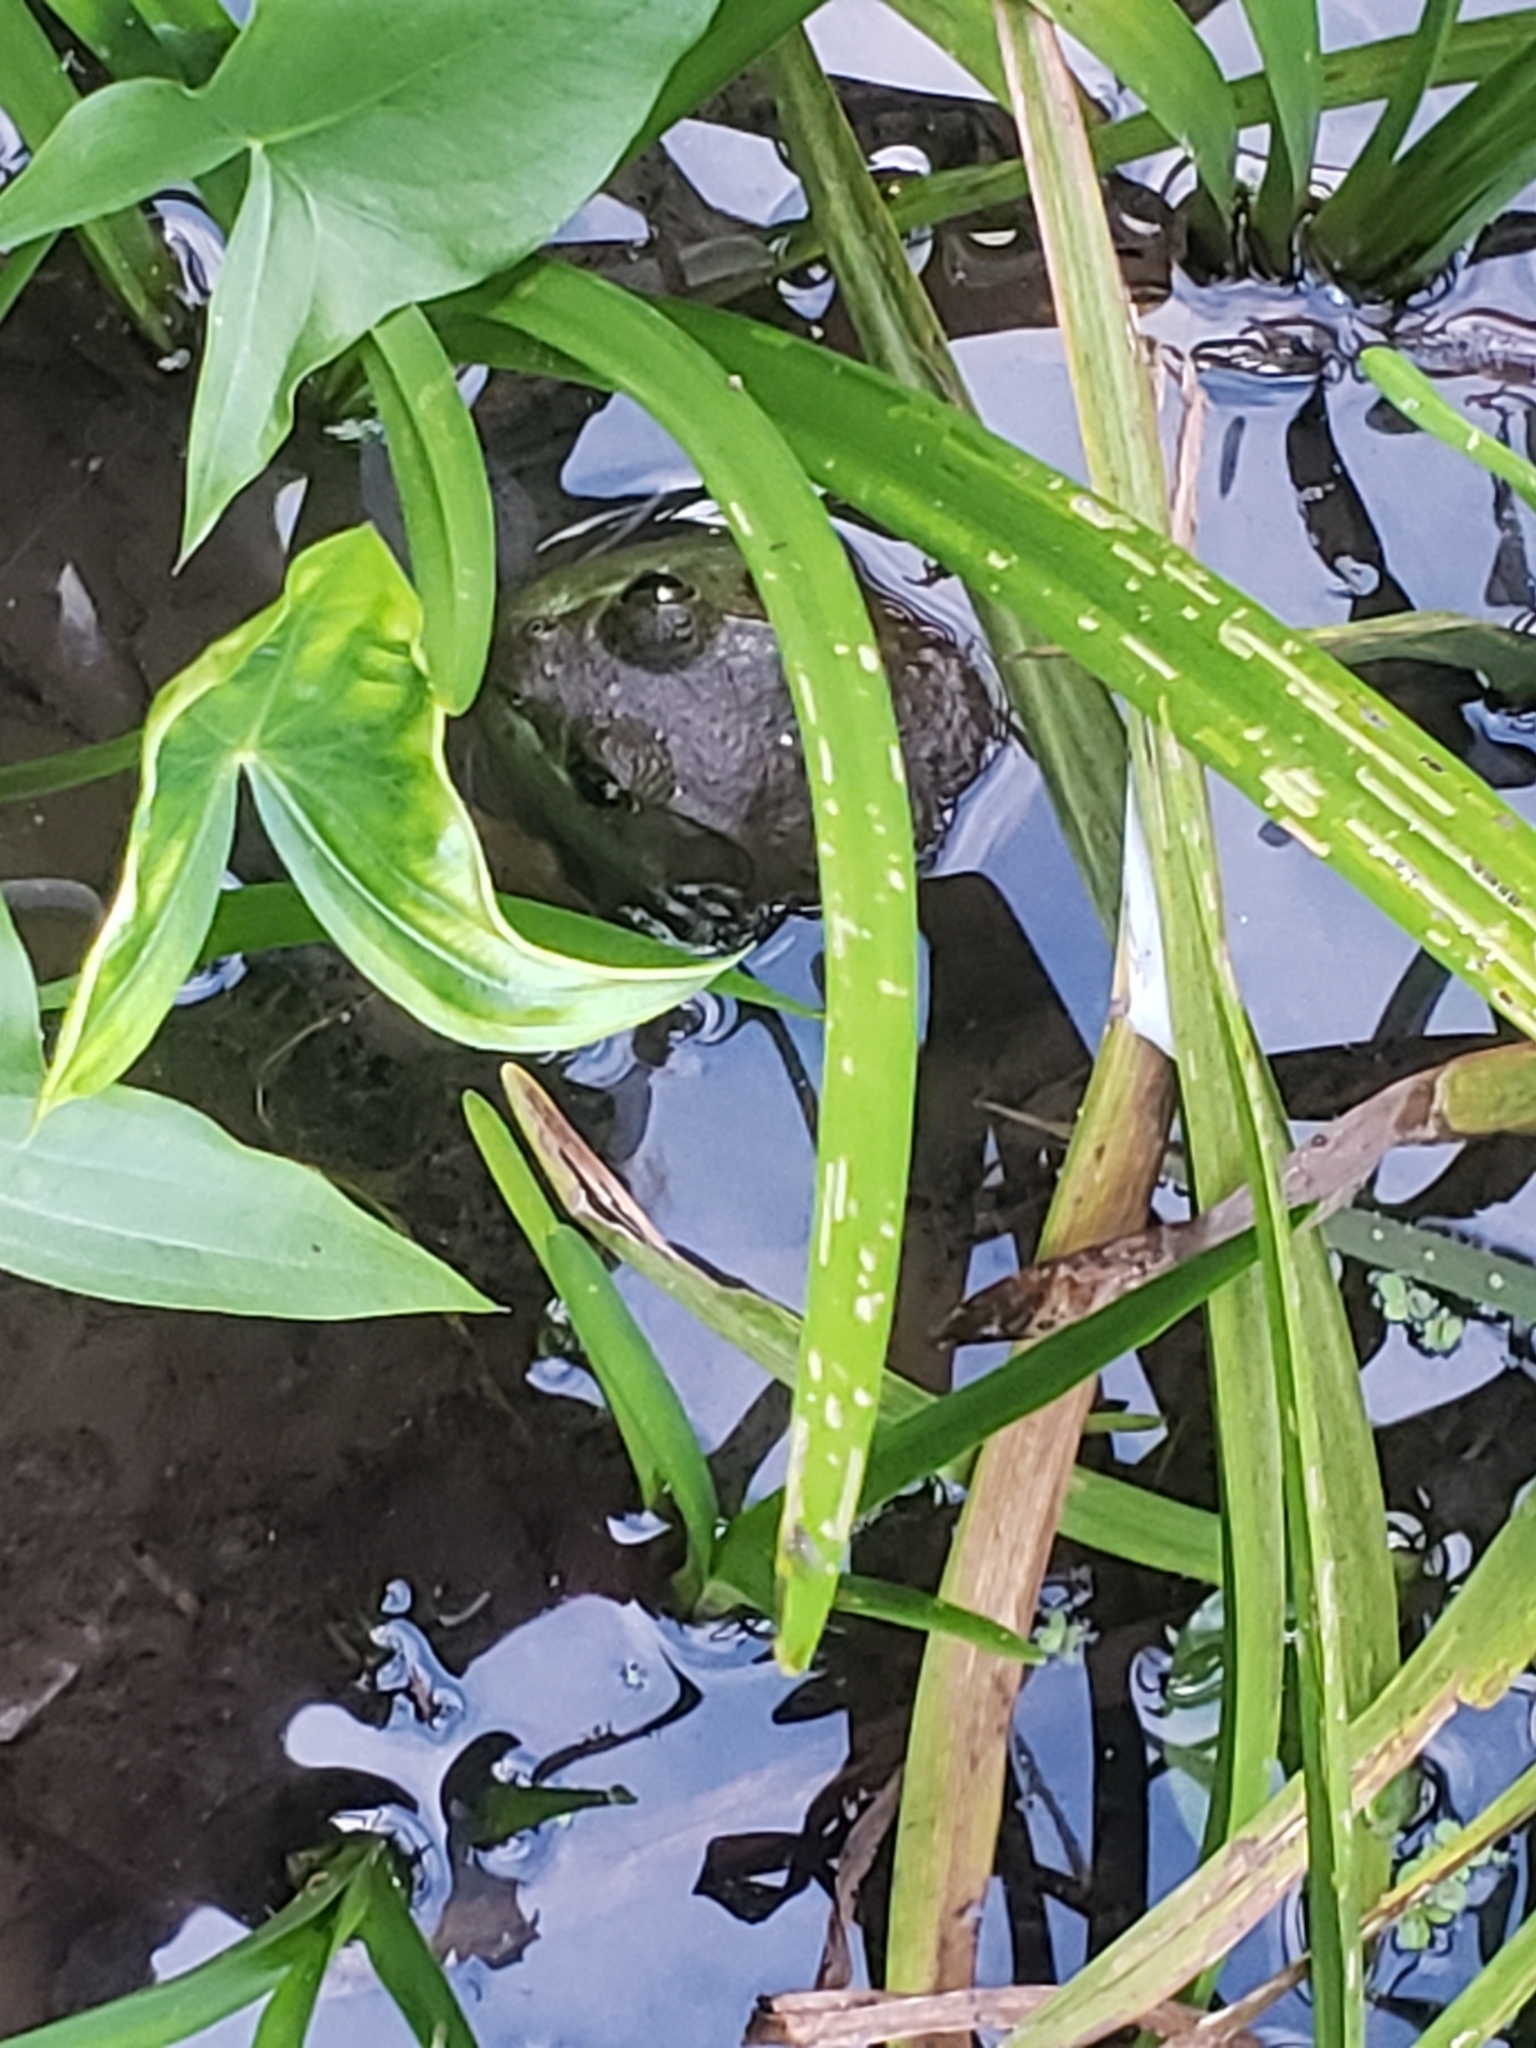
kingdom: Animalia
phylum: Chordata
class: Amphibia
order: Anura
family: Ranidae
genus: Lithobates
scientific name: Lithobates catesbeianus
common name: American bullfrog
